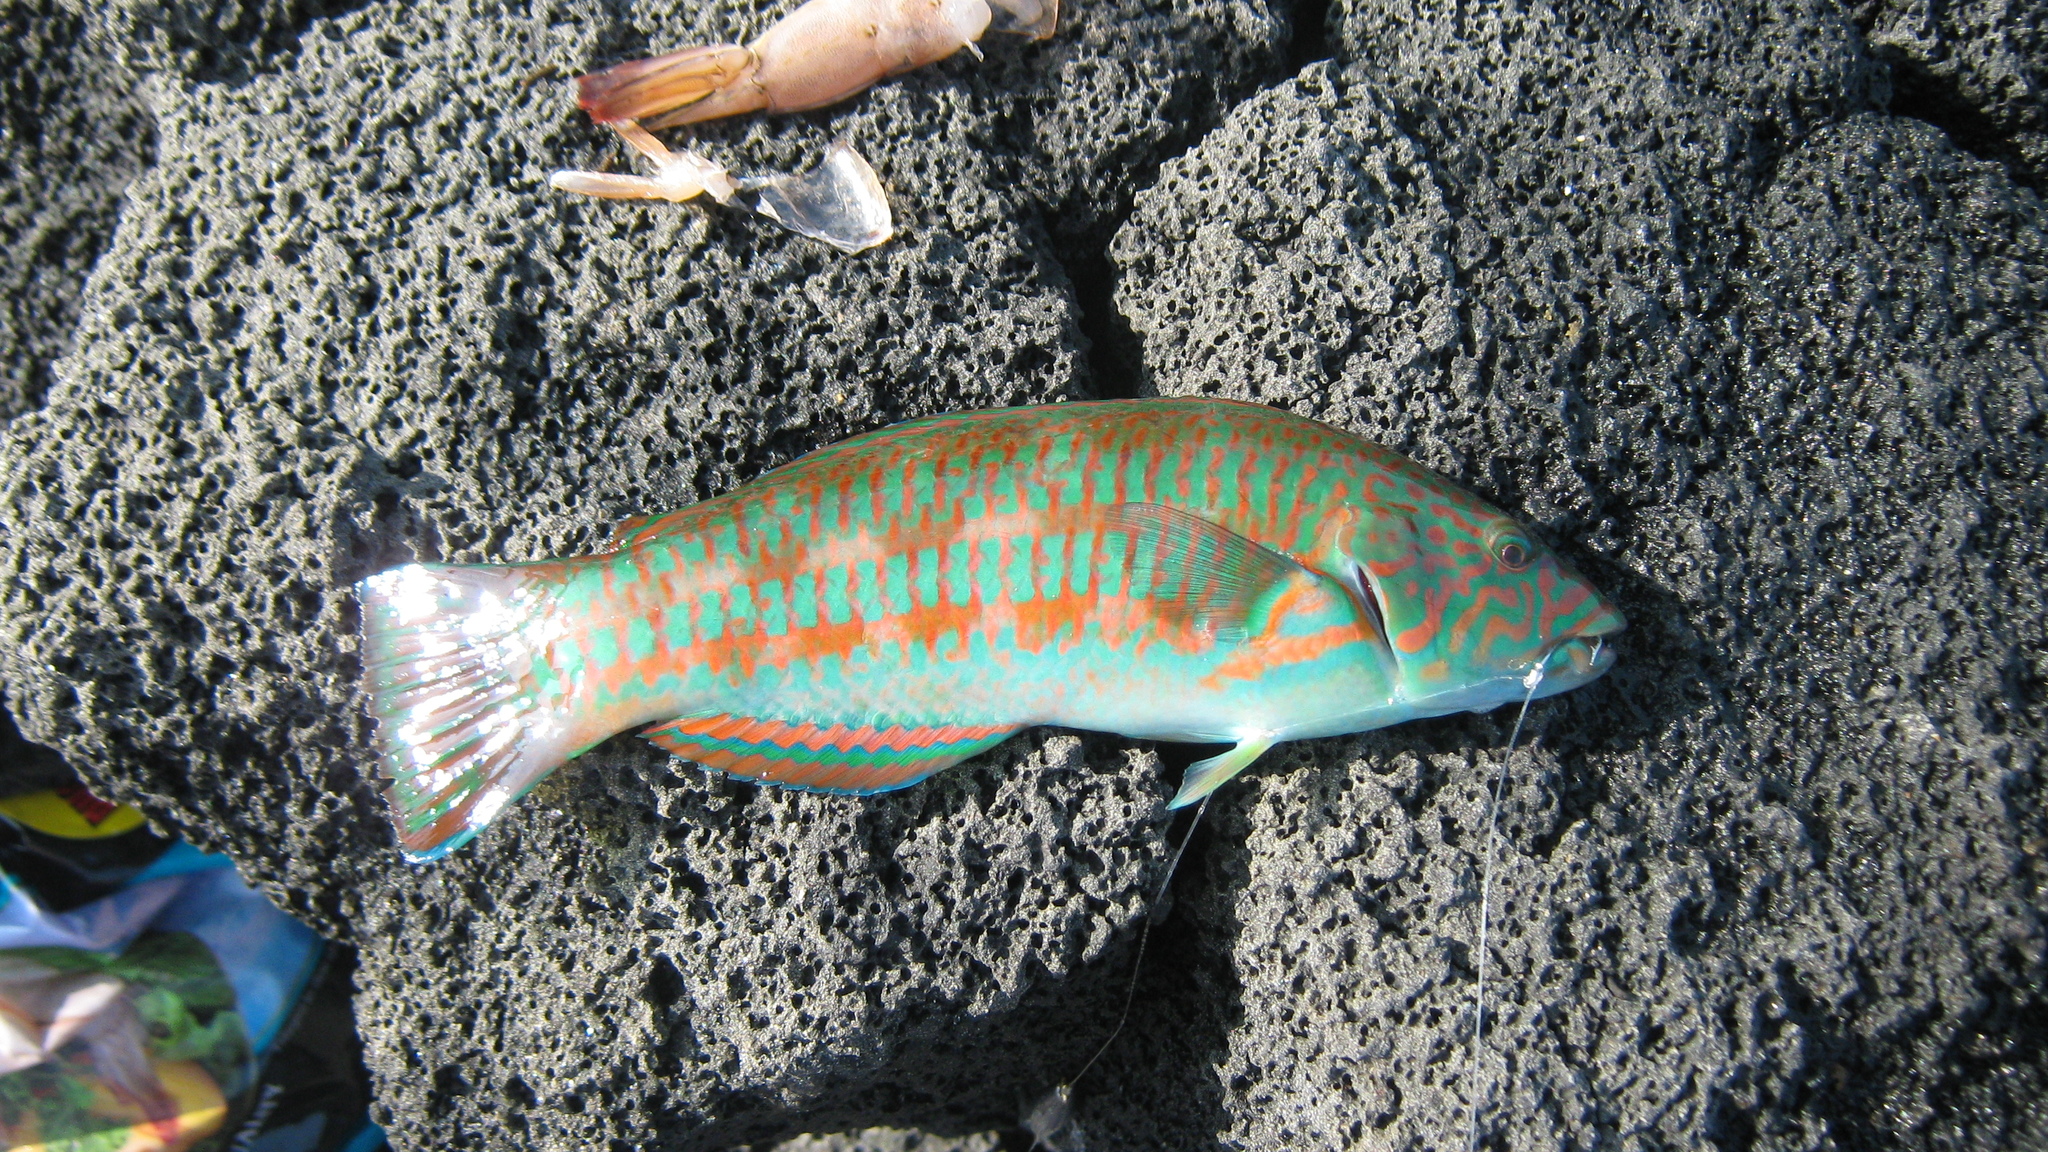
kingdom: Animalia
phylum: Chordata
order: Perciformes
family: Labridae
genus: Thalassoma
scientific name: Thalassoma trilobatum
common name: Christmas wrasse
